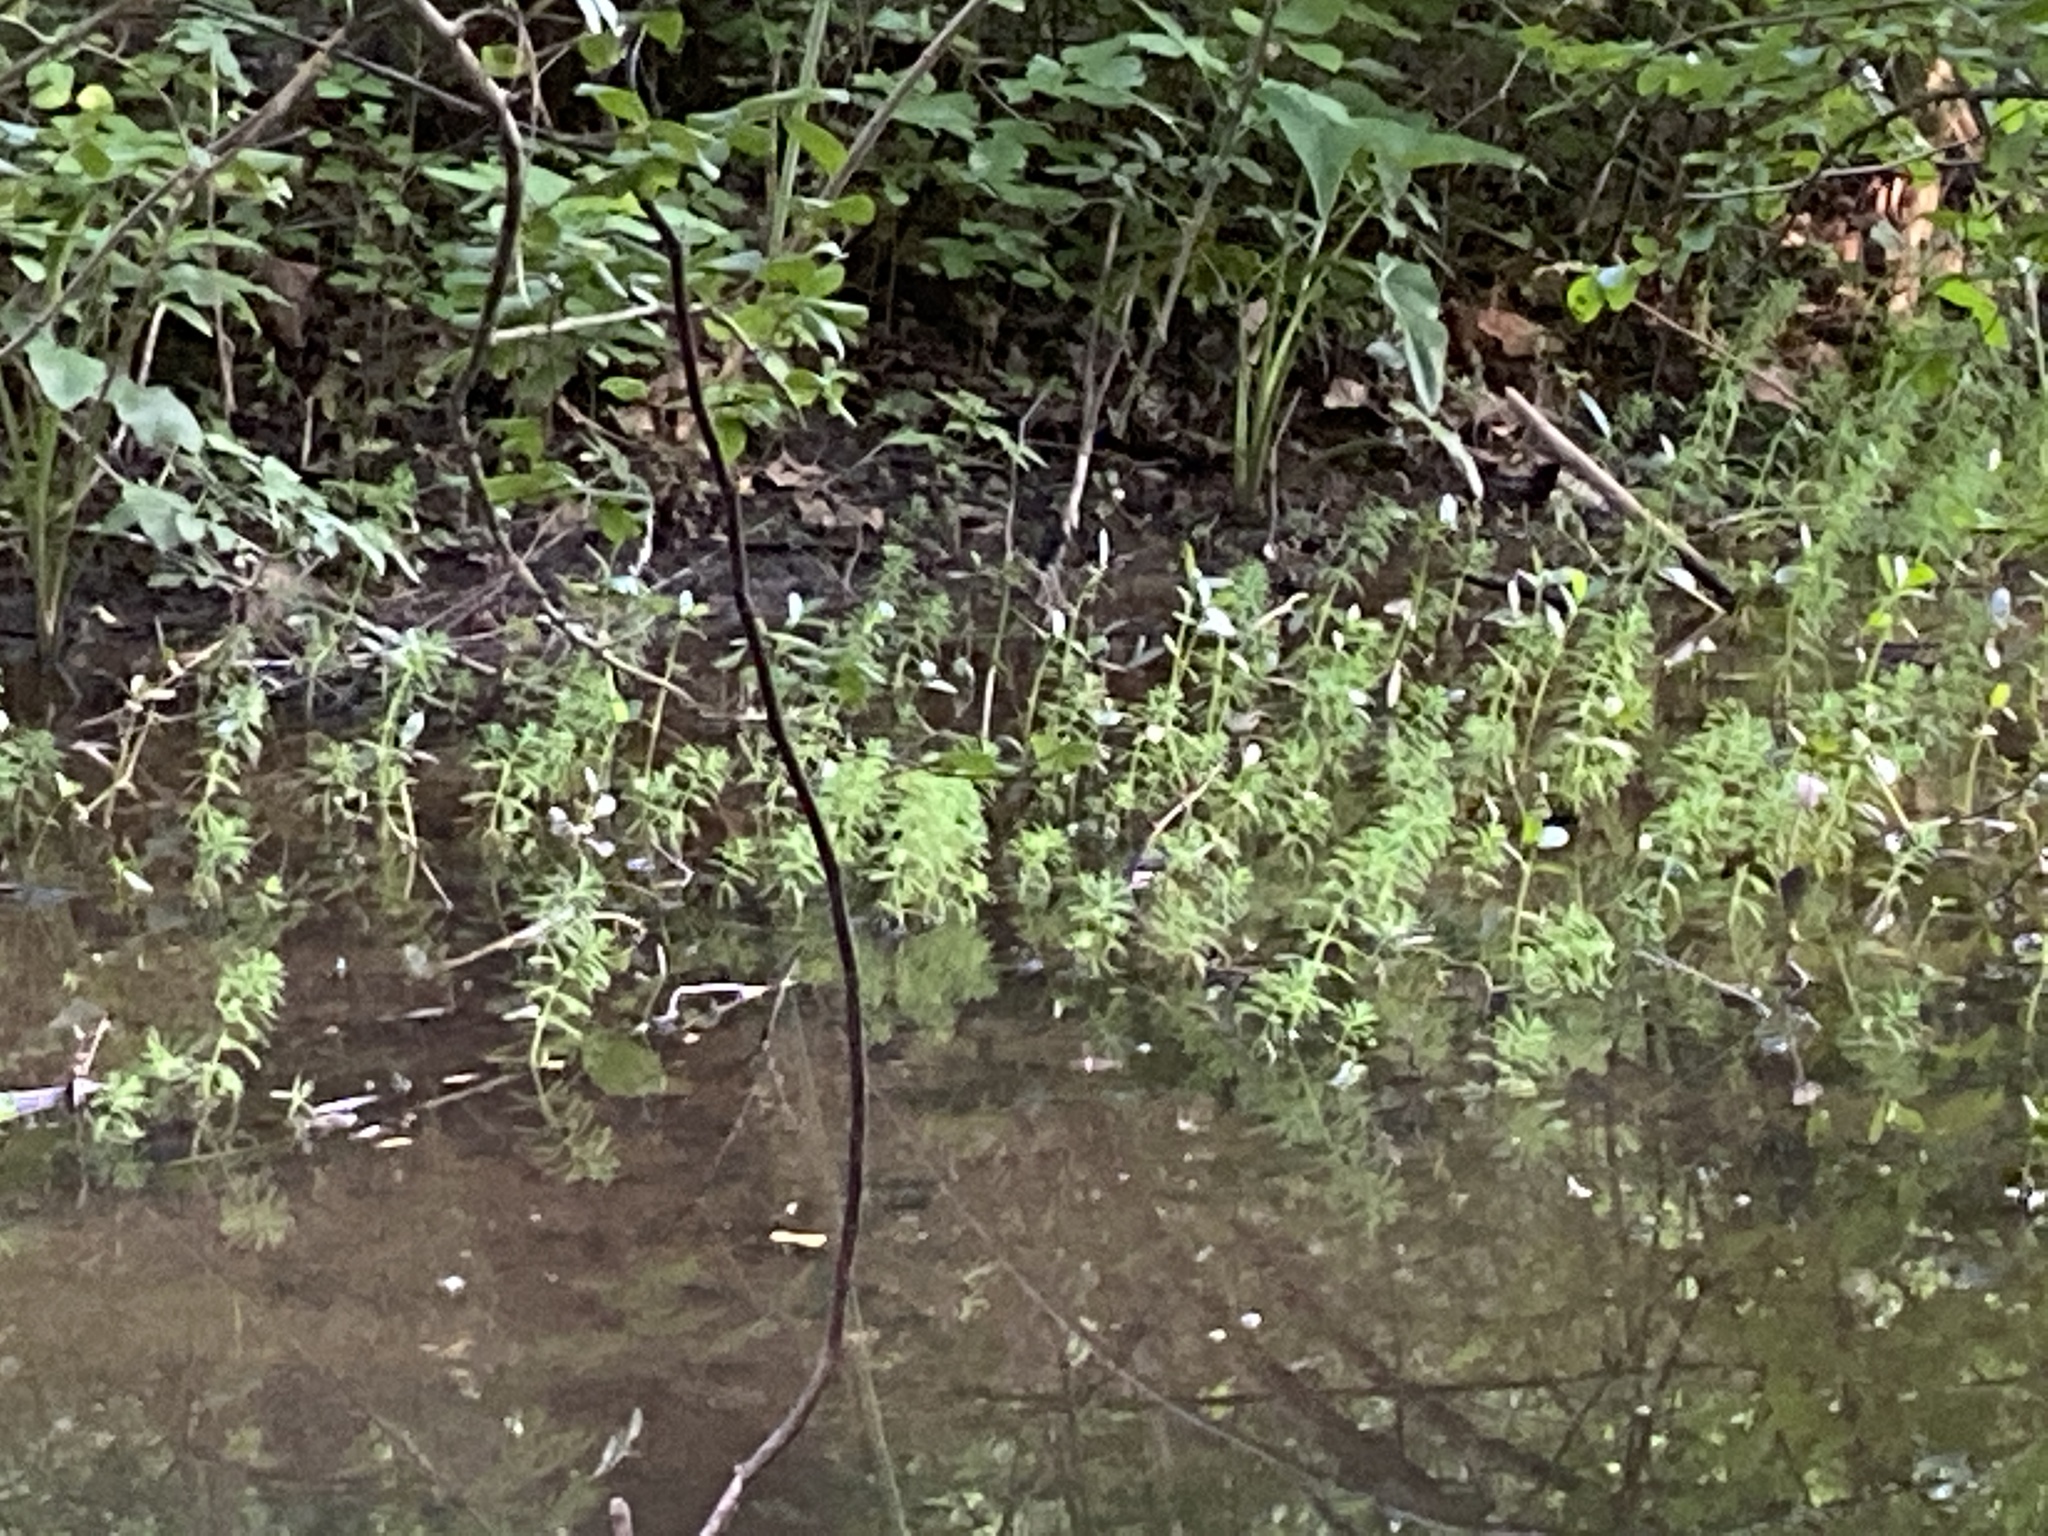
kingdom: Plantae
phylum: Tracheophyta
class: Magnoliopsida
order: Saxifragales
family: Haloragaceae
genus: Myriophyllum
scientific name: Myriophyllum aquaticum
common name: Parrot's feather
